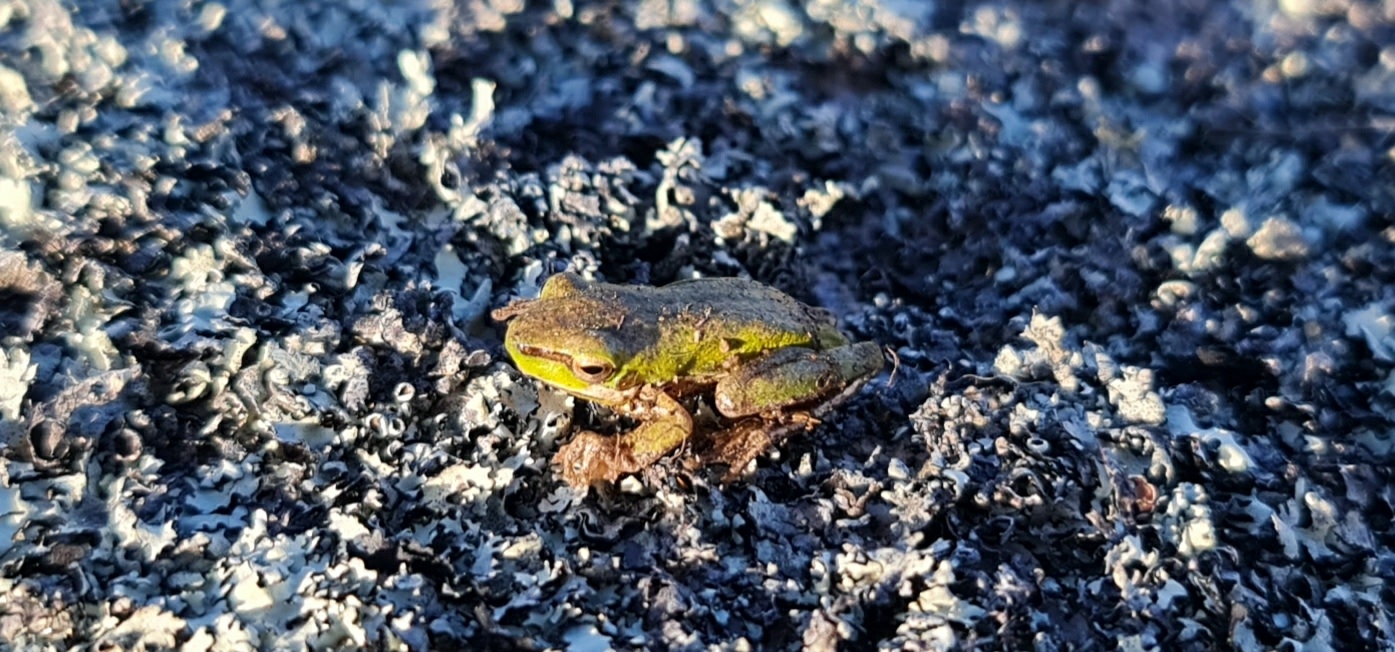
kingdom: Animalia
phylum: Chordata
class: Amphibia
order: Anura
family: Pelodryadidae
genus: Litoria
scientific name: Litoria fallax
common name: Eastern dwarf treefrog
